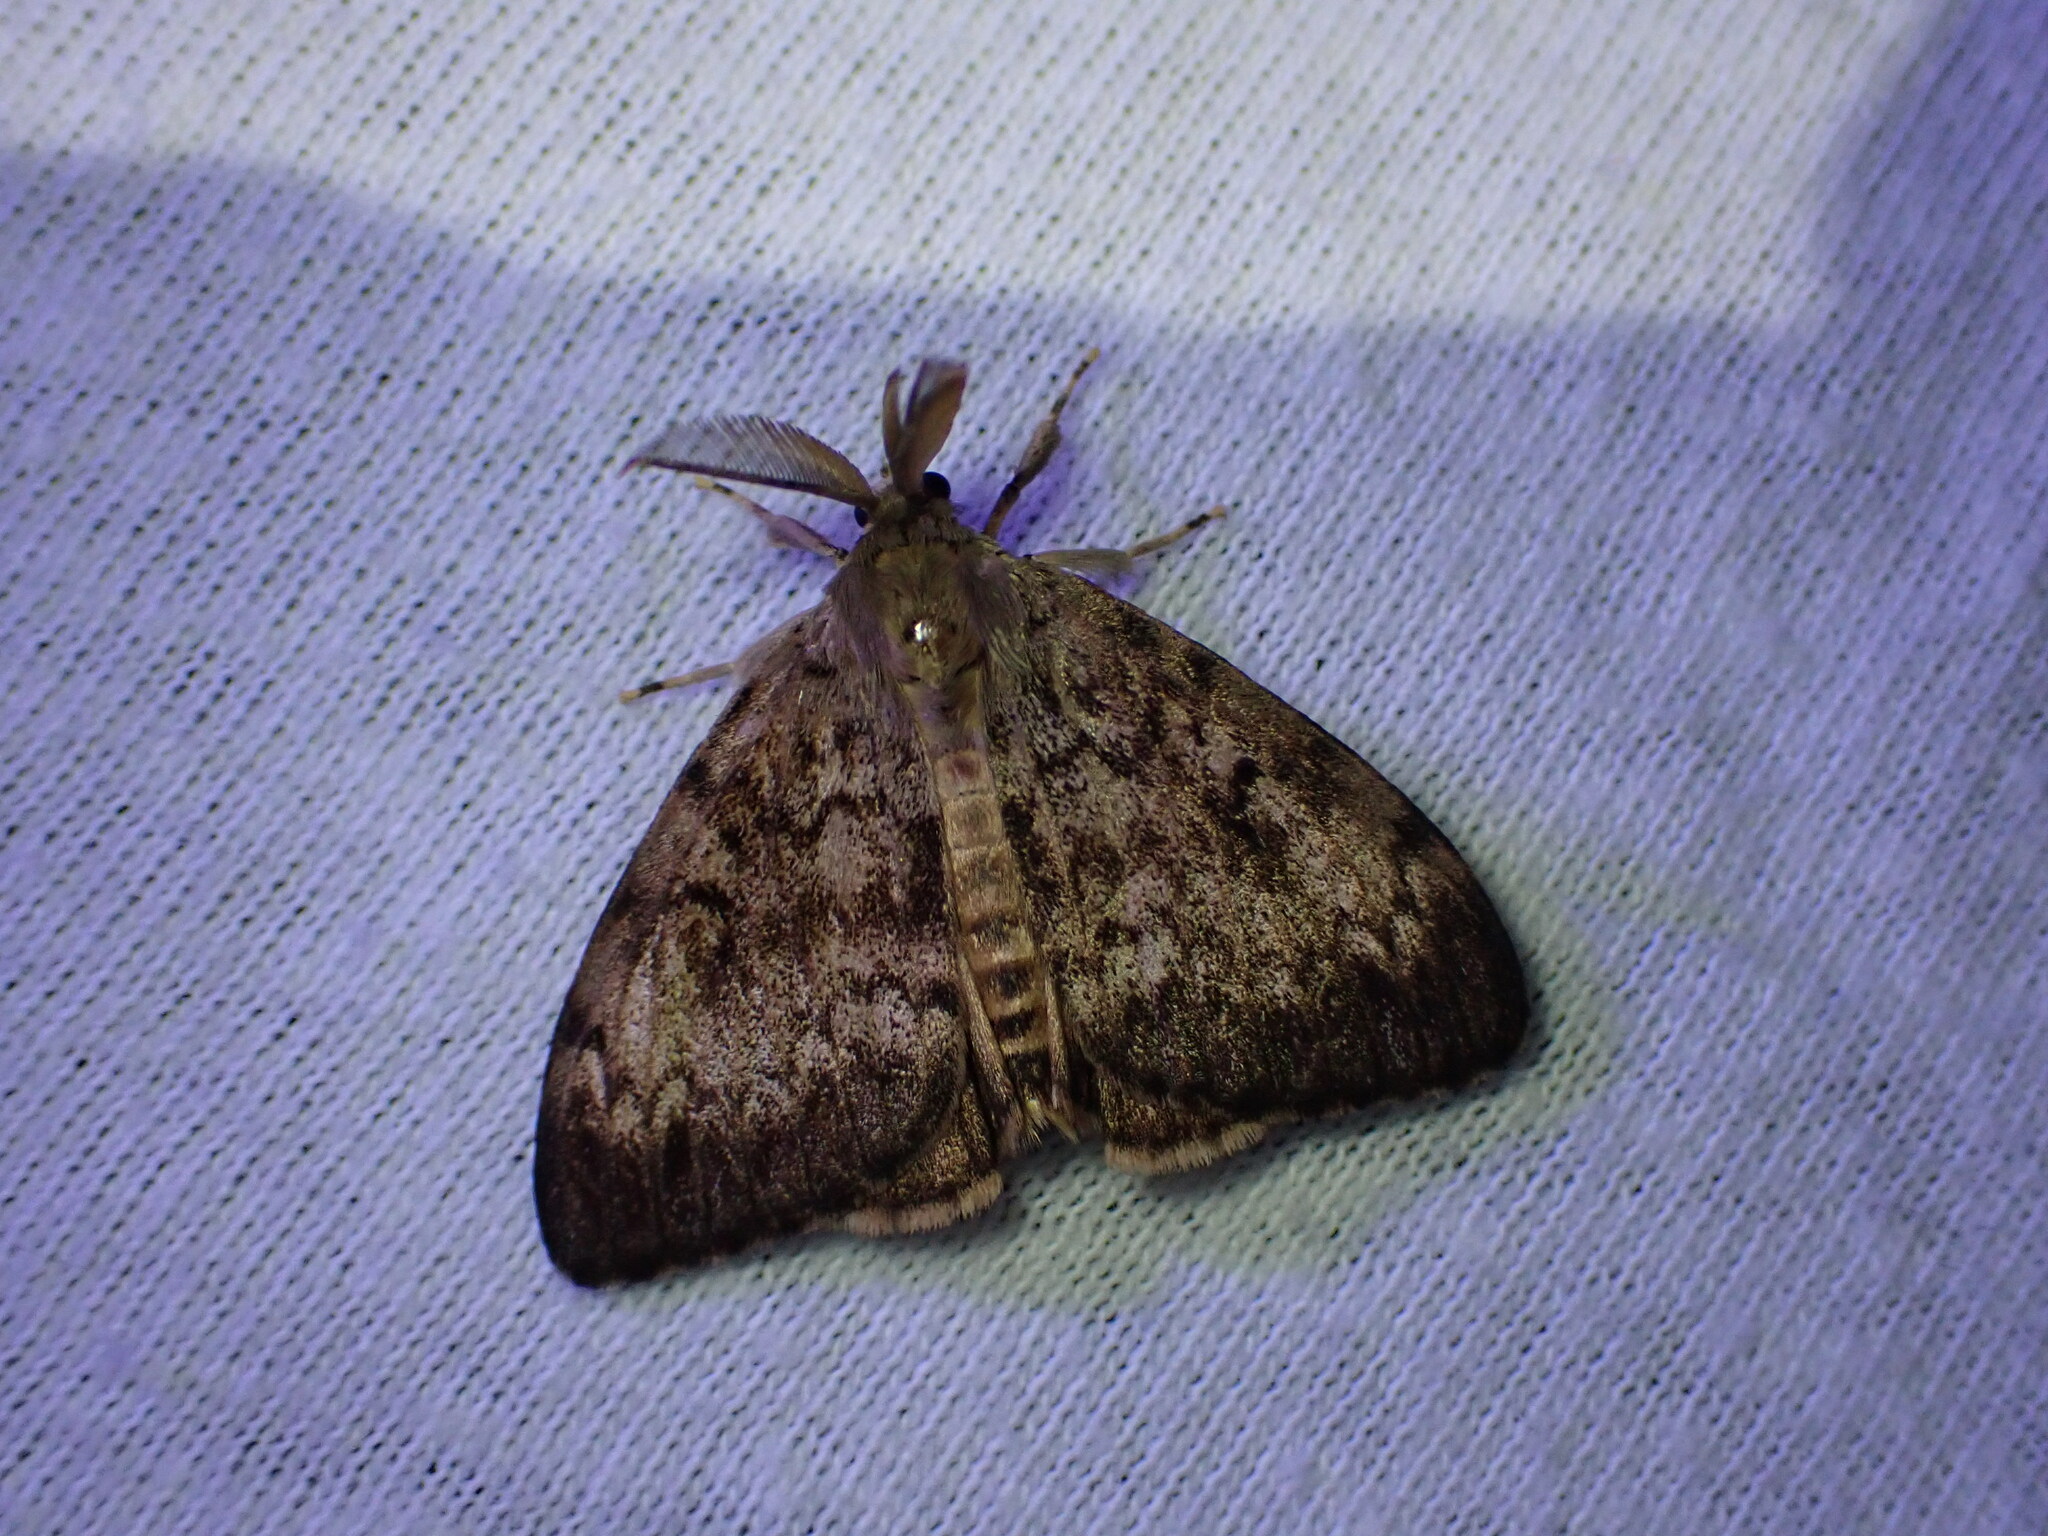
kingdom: Animalia
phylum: Arthropoda
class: Insecta
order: Lepidoptera
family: Erebidae
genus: Lymantria
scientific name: Lymantria dispar
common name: Gypsy moth
